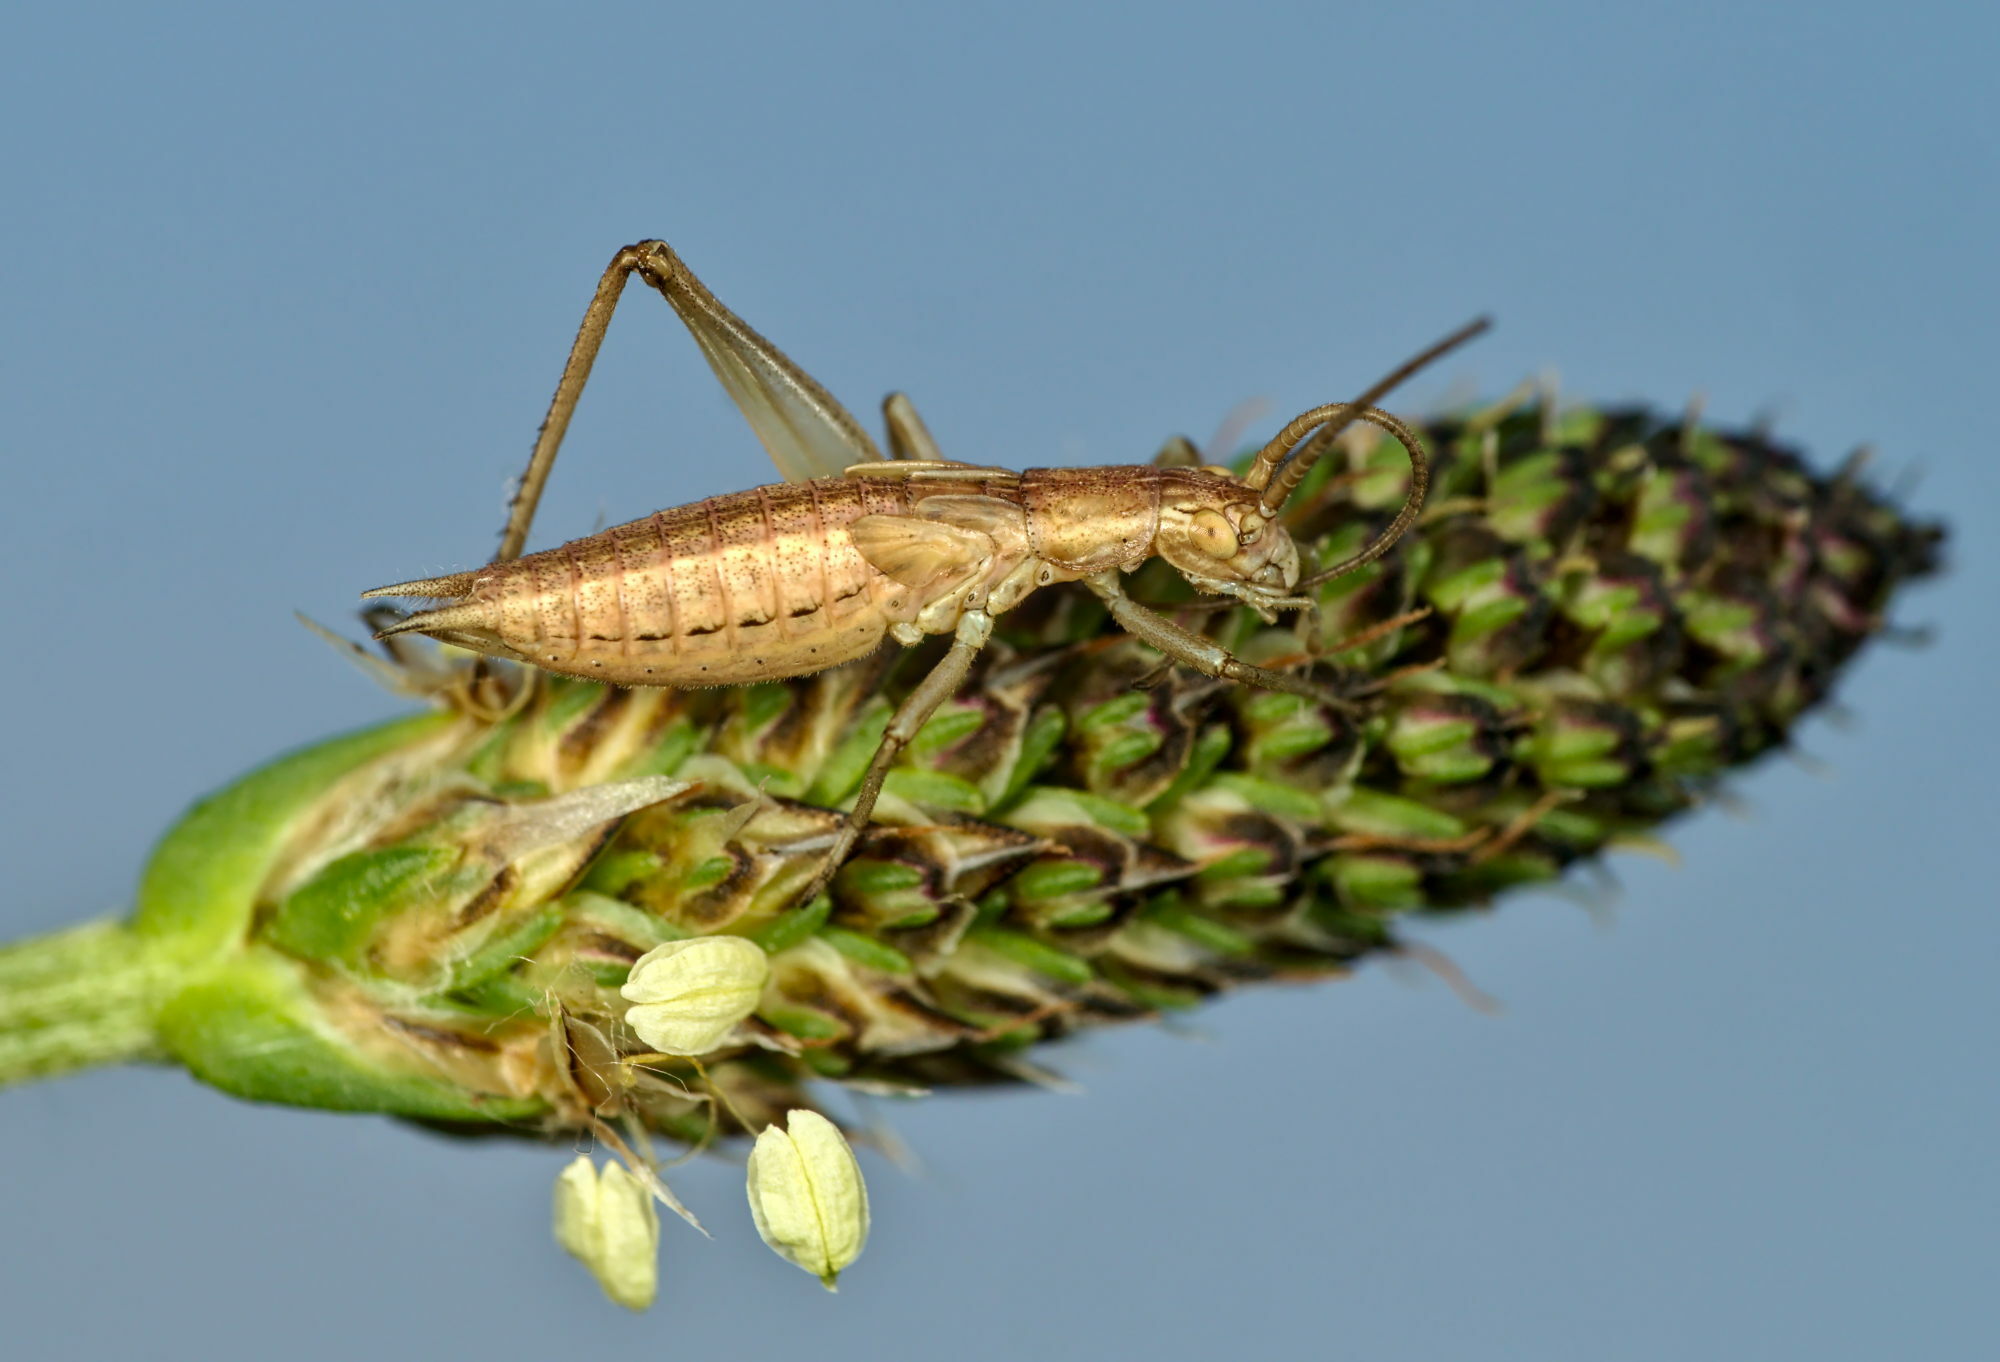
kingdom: Animalia
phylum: Arthropoda
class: Insecta
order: Orthoptera
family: Gryllidae
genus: Oecanthus
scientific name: Oecanthus pellucens
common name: Tree-cricket
